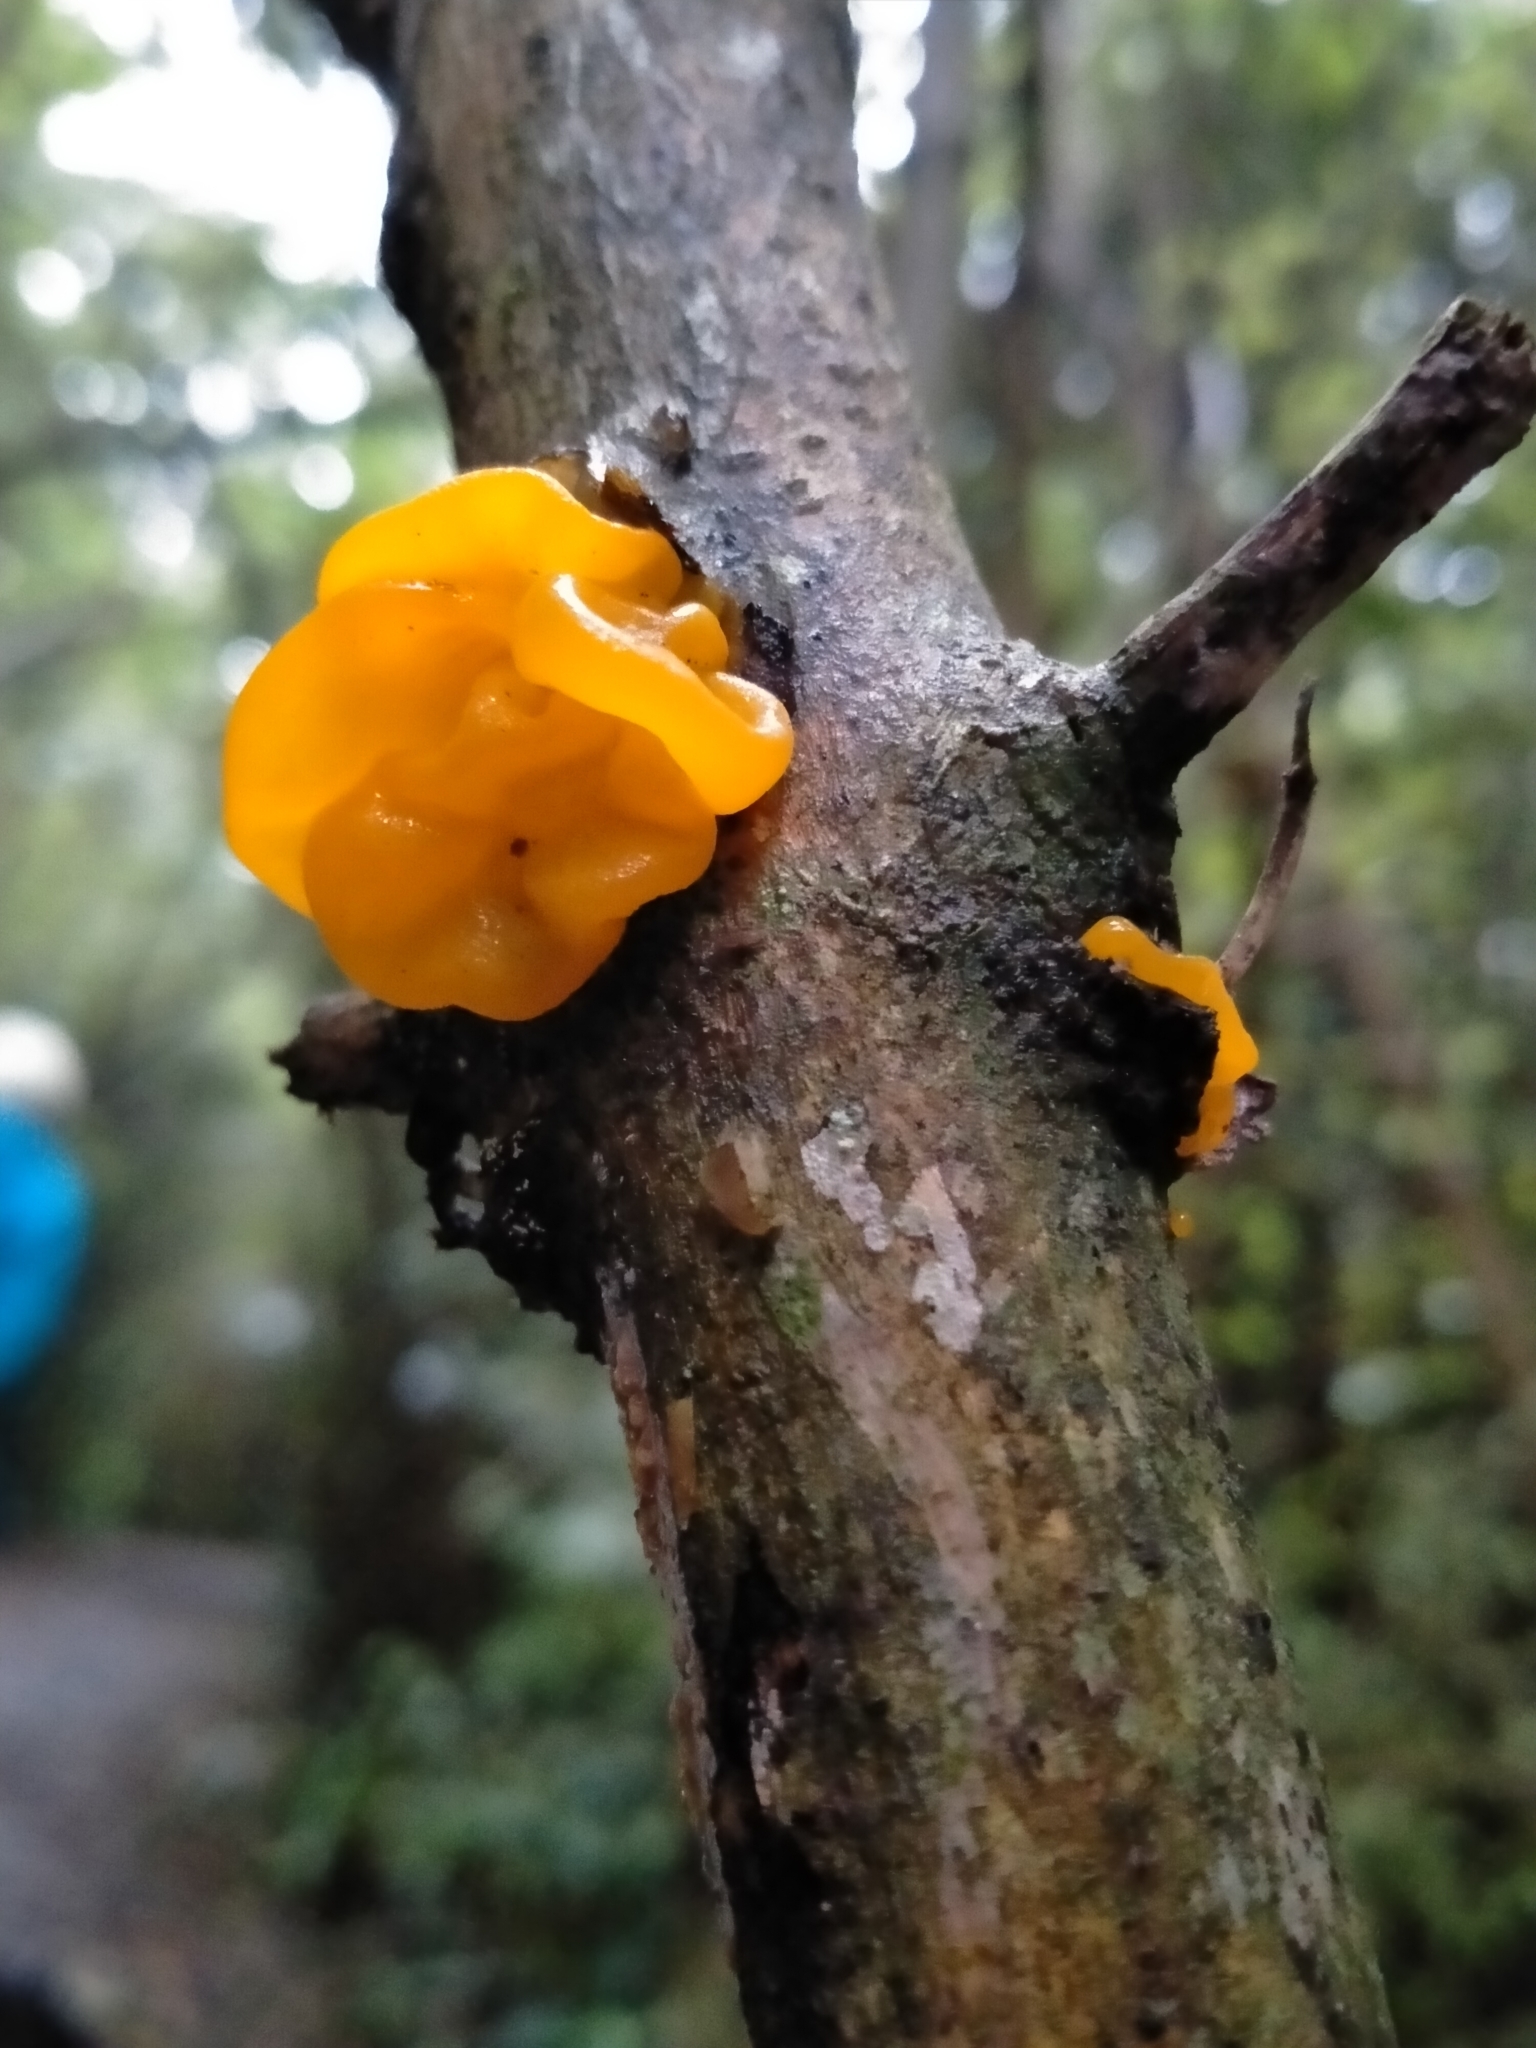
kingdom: Fungi
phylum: Basidiomycota
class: Tremellomycetes
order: Tremellales
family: Tremellaceae
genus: Tremella
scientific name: Tremella mesenterica
